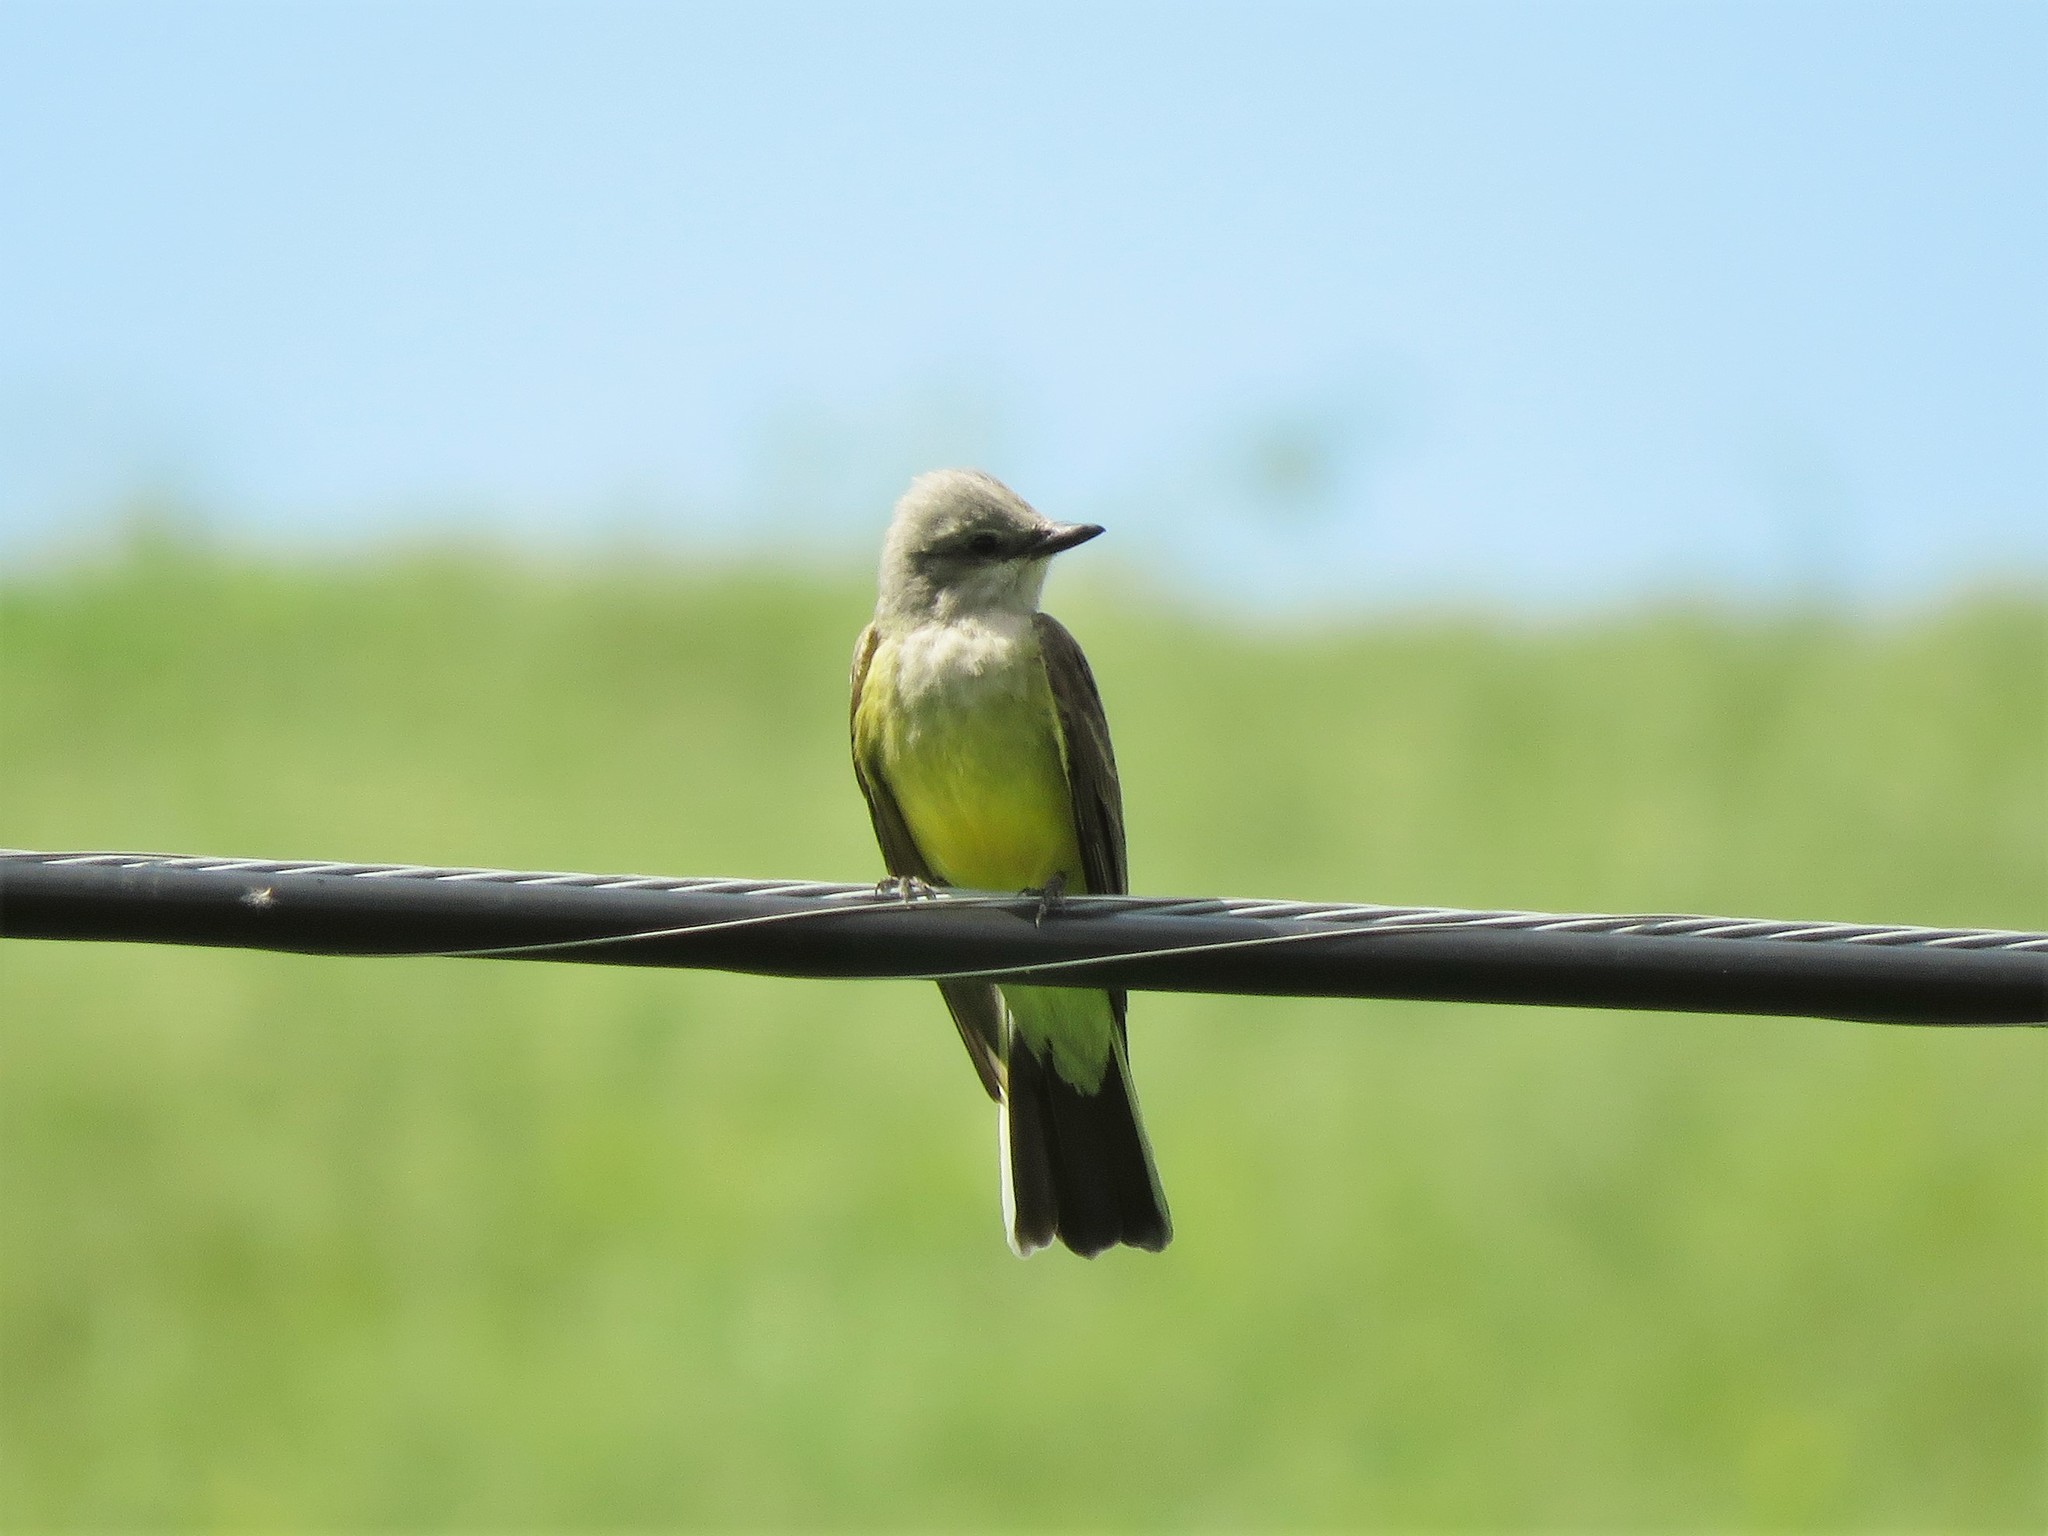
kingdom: Animalia
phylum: Chordata
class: Aves
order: Passeriformes
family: Tyrannidae
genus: Tyrannus
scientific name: Tyrannus verticalis
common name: Western kingbird
